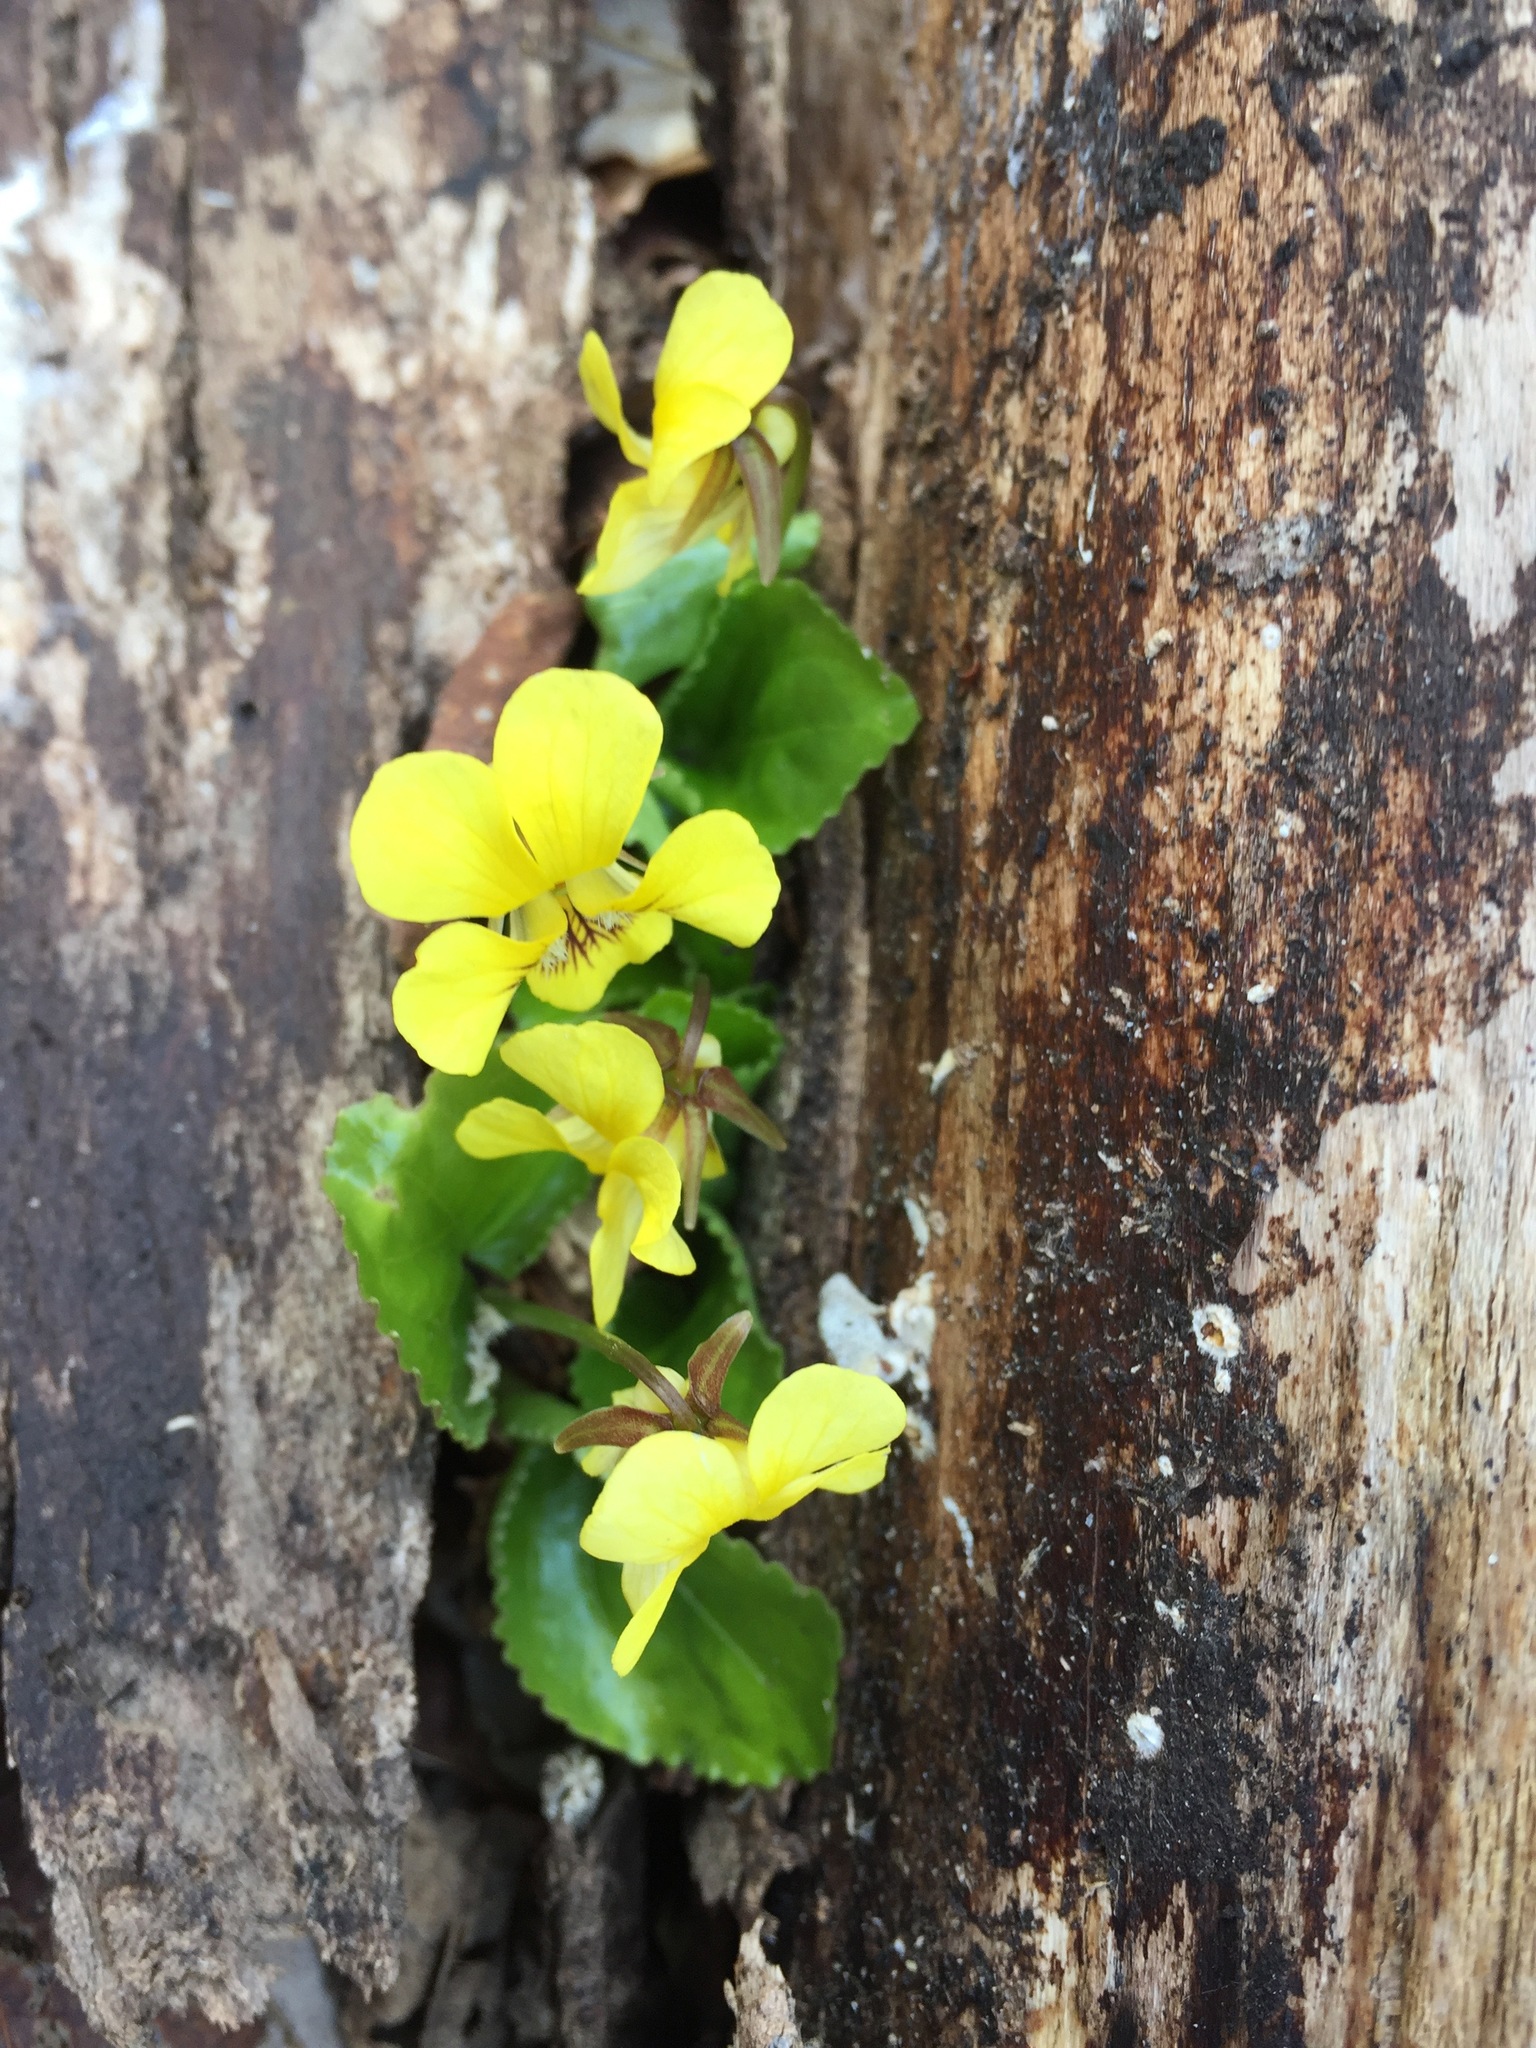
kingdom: Plantae
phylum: Tracheophyta
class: Magnoliopsida
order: Malpighiales
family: Violaceae
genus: Viola
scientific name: Viola rotundifolia
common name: Early yellow violet
